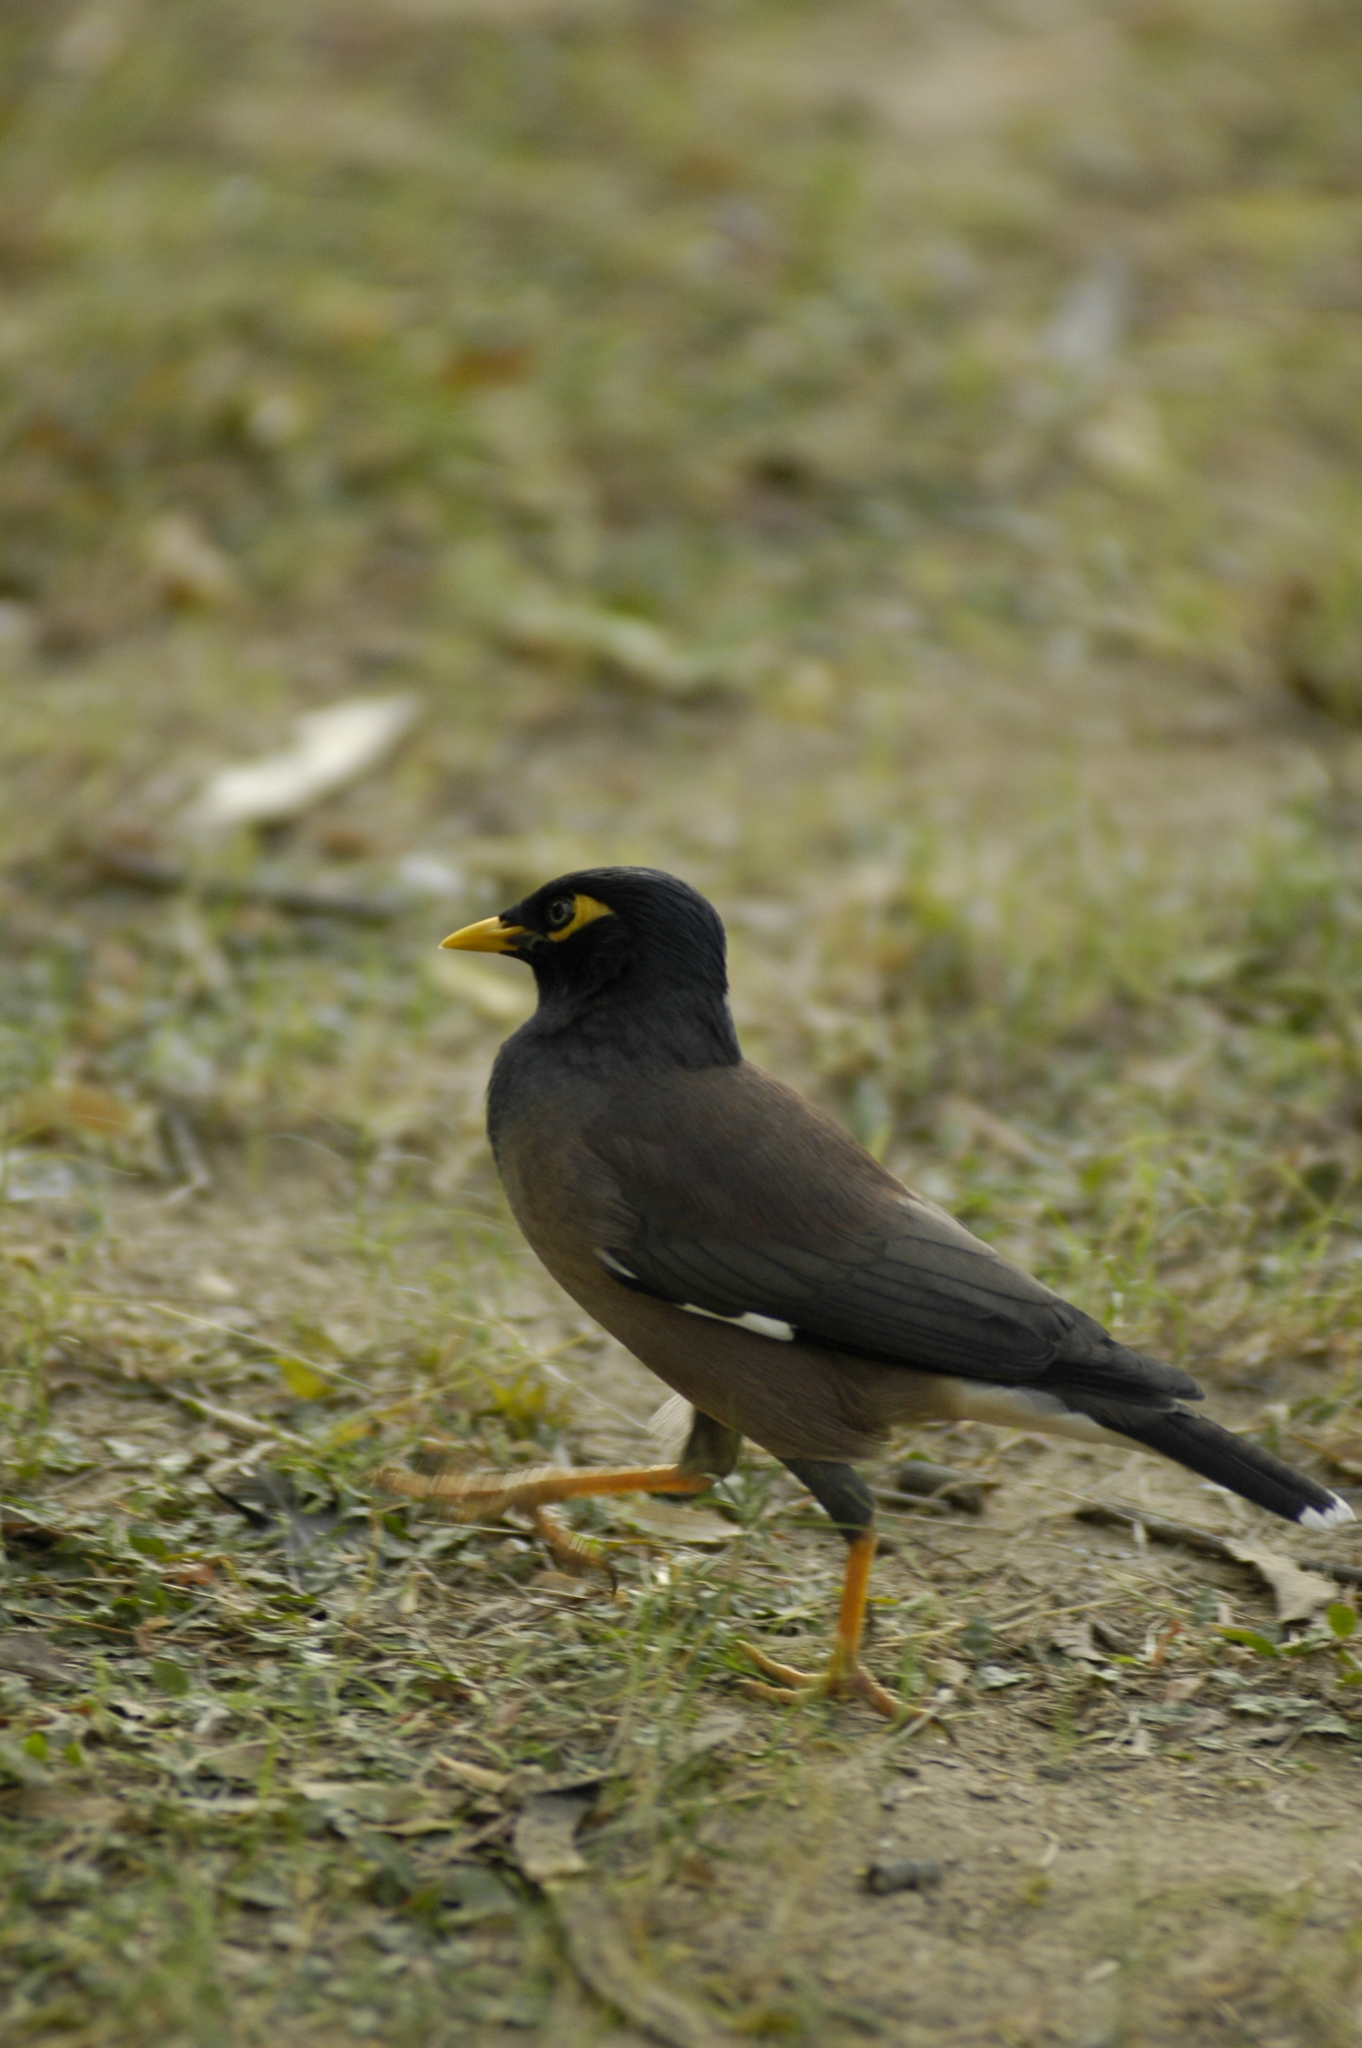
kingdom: Animalia
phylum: Chordata
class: Aves
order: Passeriformes
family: Sturnidae
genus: Acridotheres
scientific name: Acridotheres tristis
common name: Common myna
